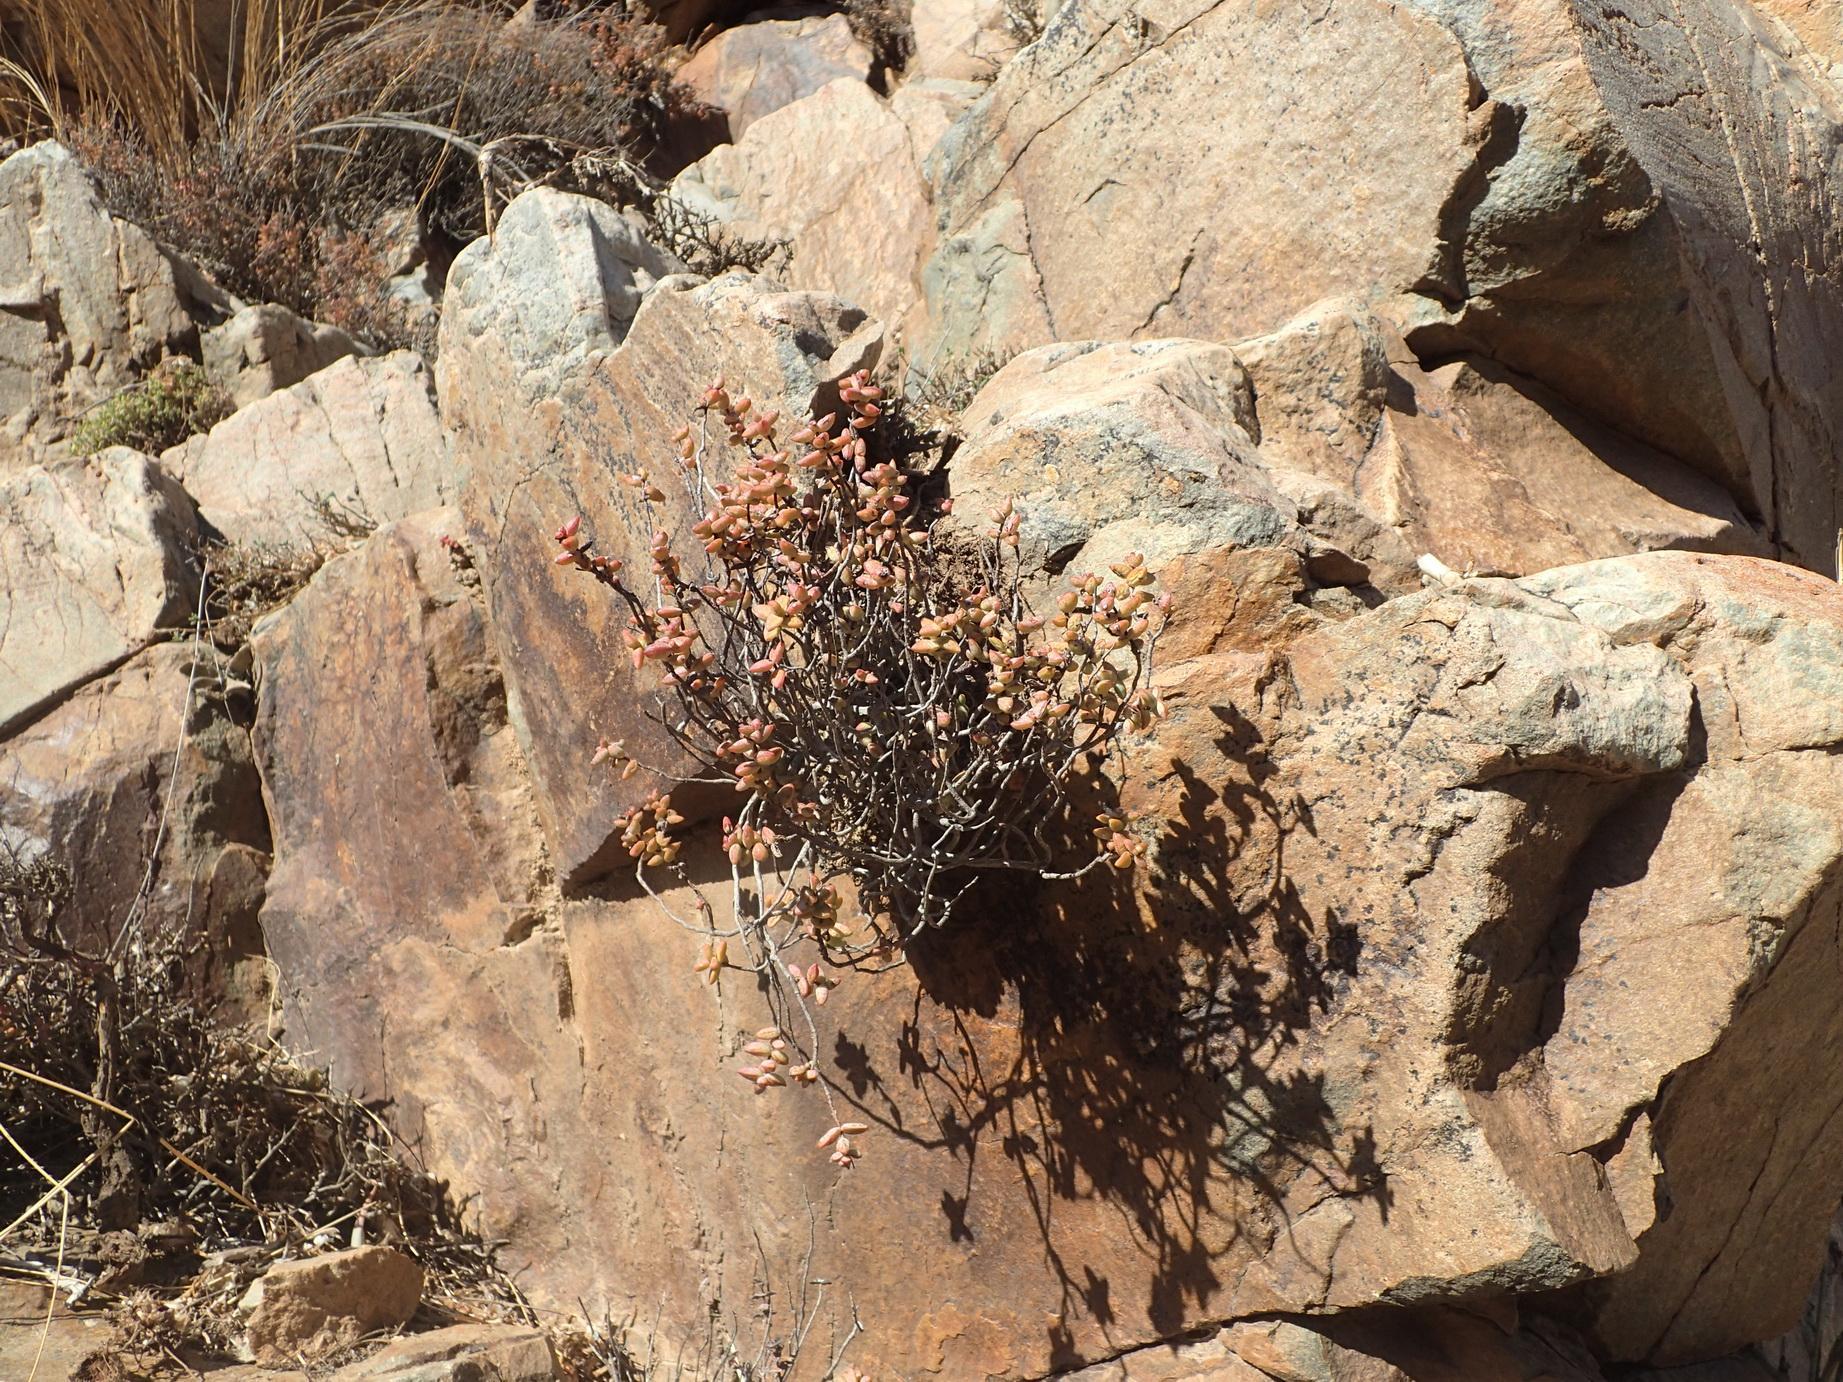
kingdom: Plantae
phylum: Tracheophyta
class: Magnoliopsida
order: Saxifragales
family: Crassulaceae
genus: Crassula
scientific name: Crassula rupestris
